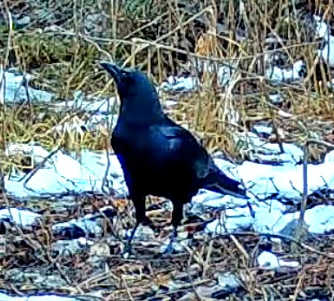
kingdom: Animalia
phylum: Chordata
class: Aves
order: Passeriformes
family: Corvidae
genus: Corvus
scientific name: Corvus brachyrhynchos
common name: American crow
